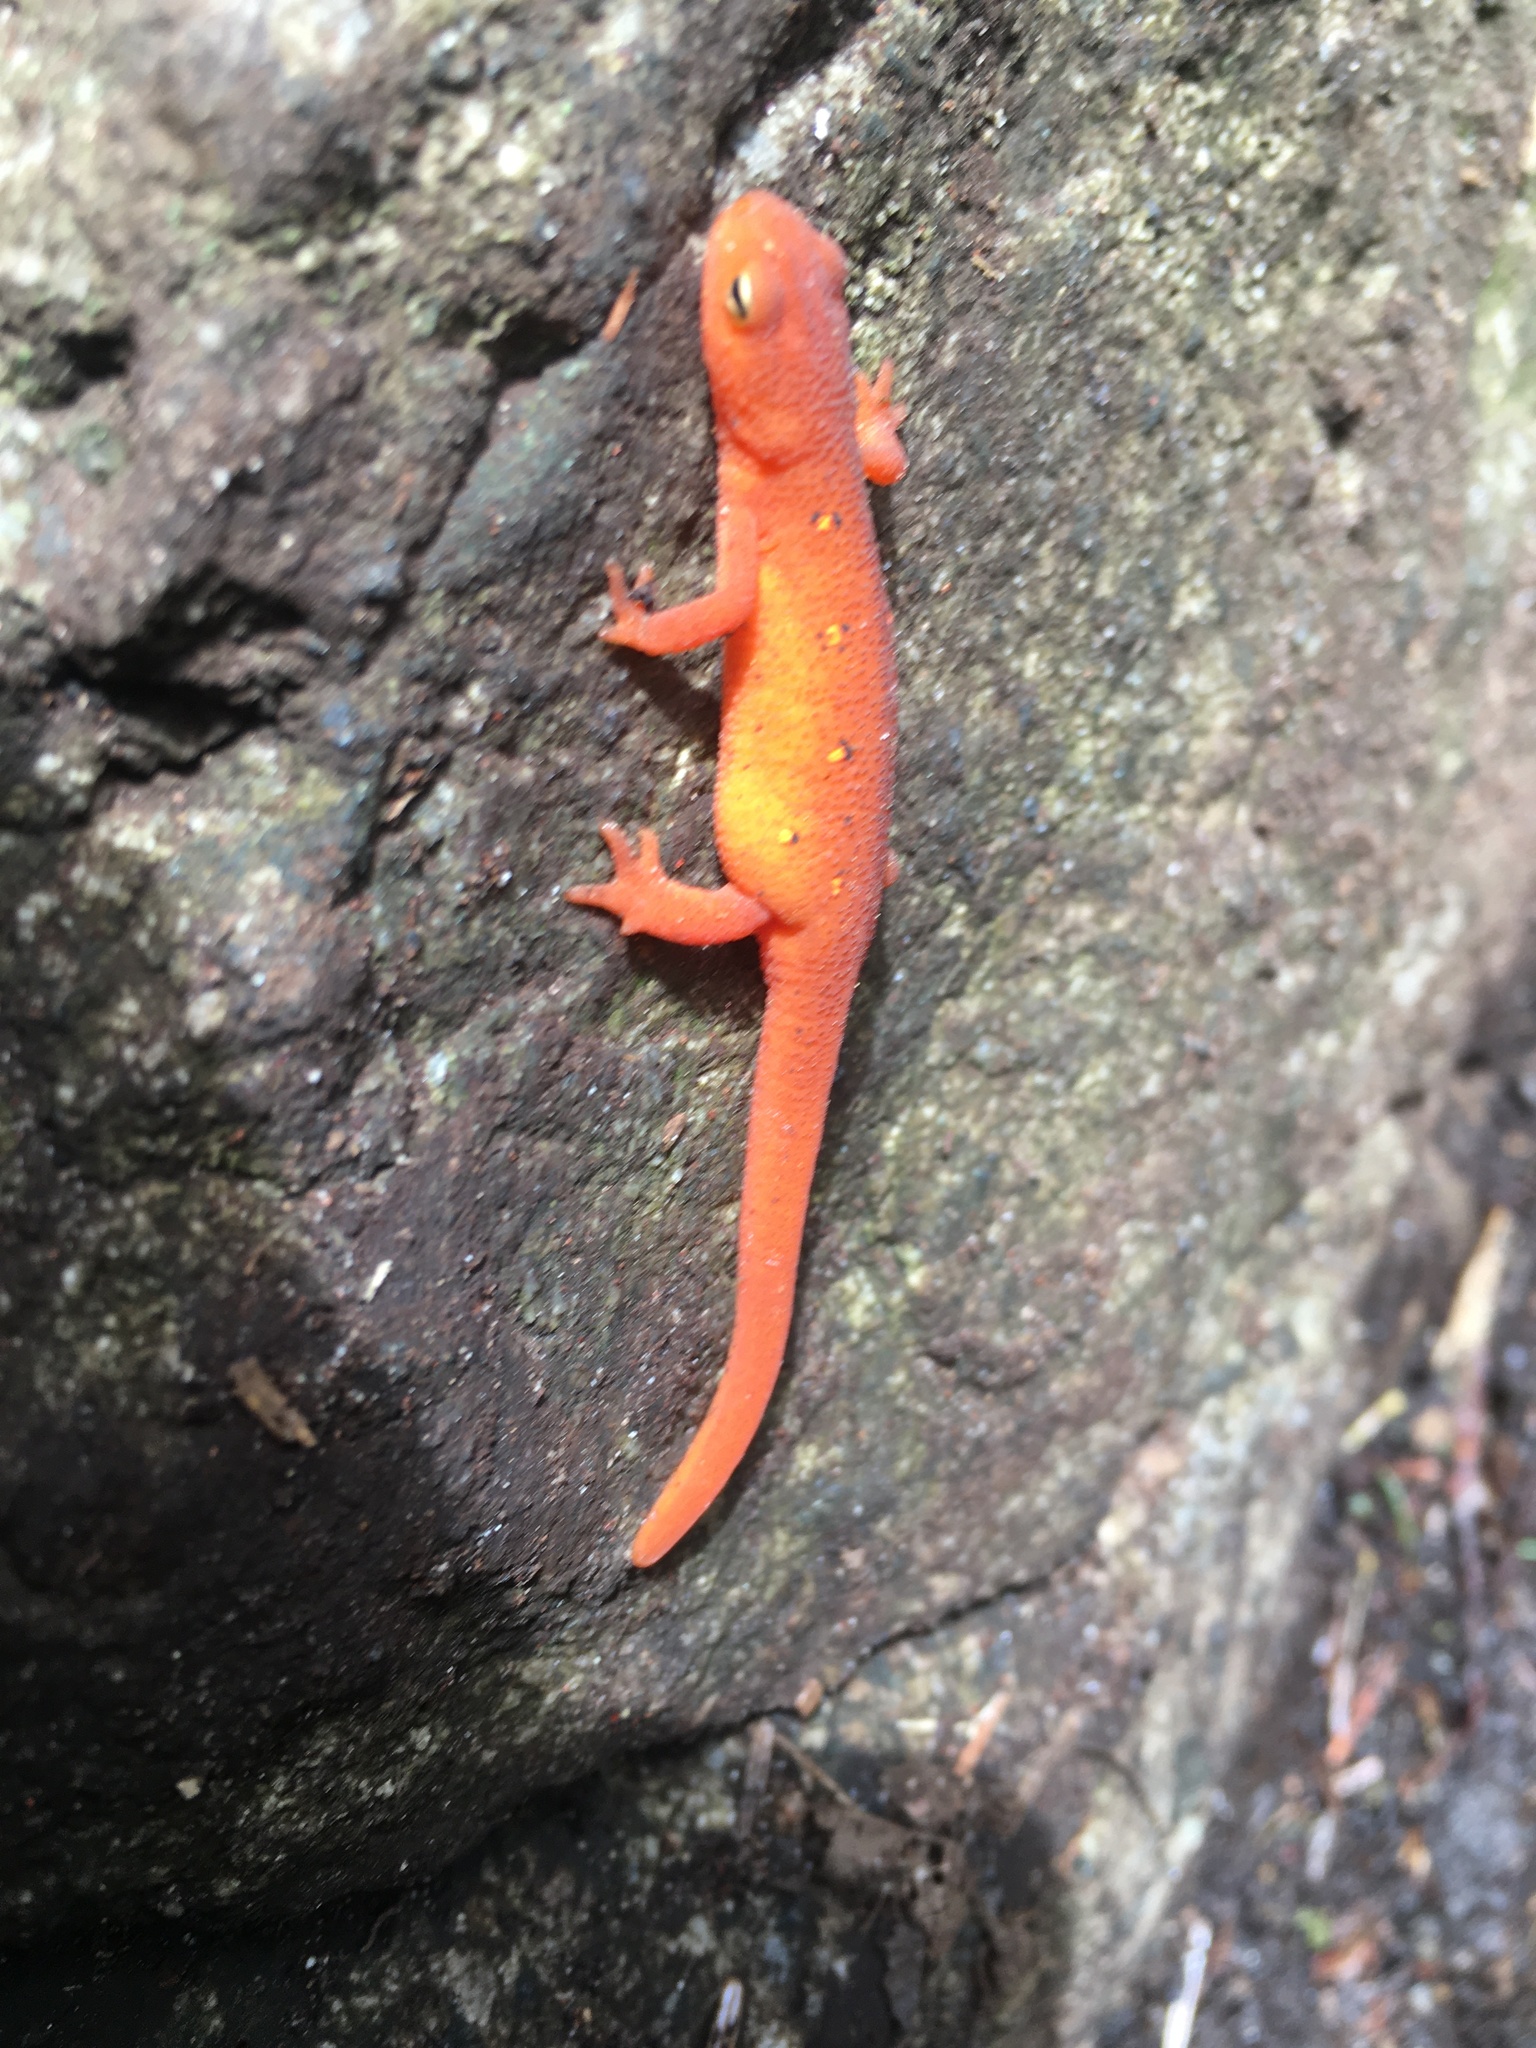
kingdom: Animalia
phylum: Chordata
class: Amphibia
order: Caudata
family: Salamandridae
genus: Notophthalmus
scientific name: Notophthalmus viridescens
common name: Eastern newt
